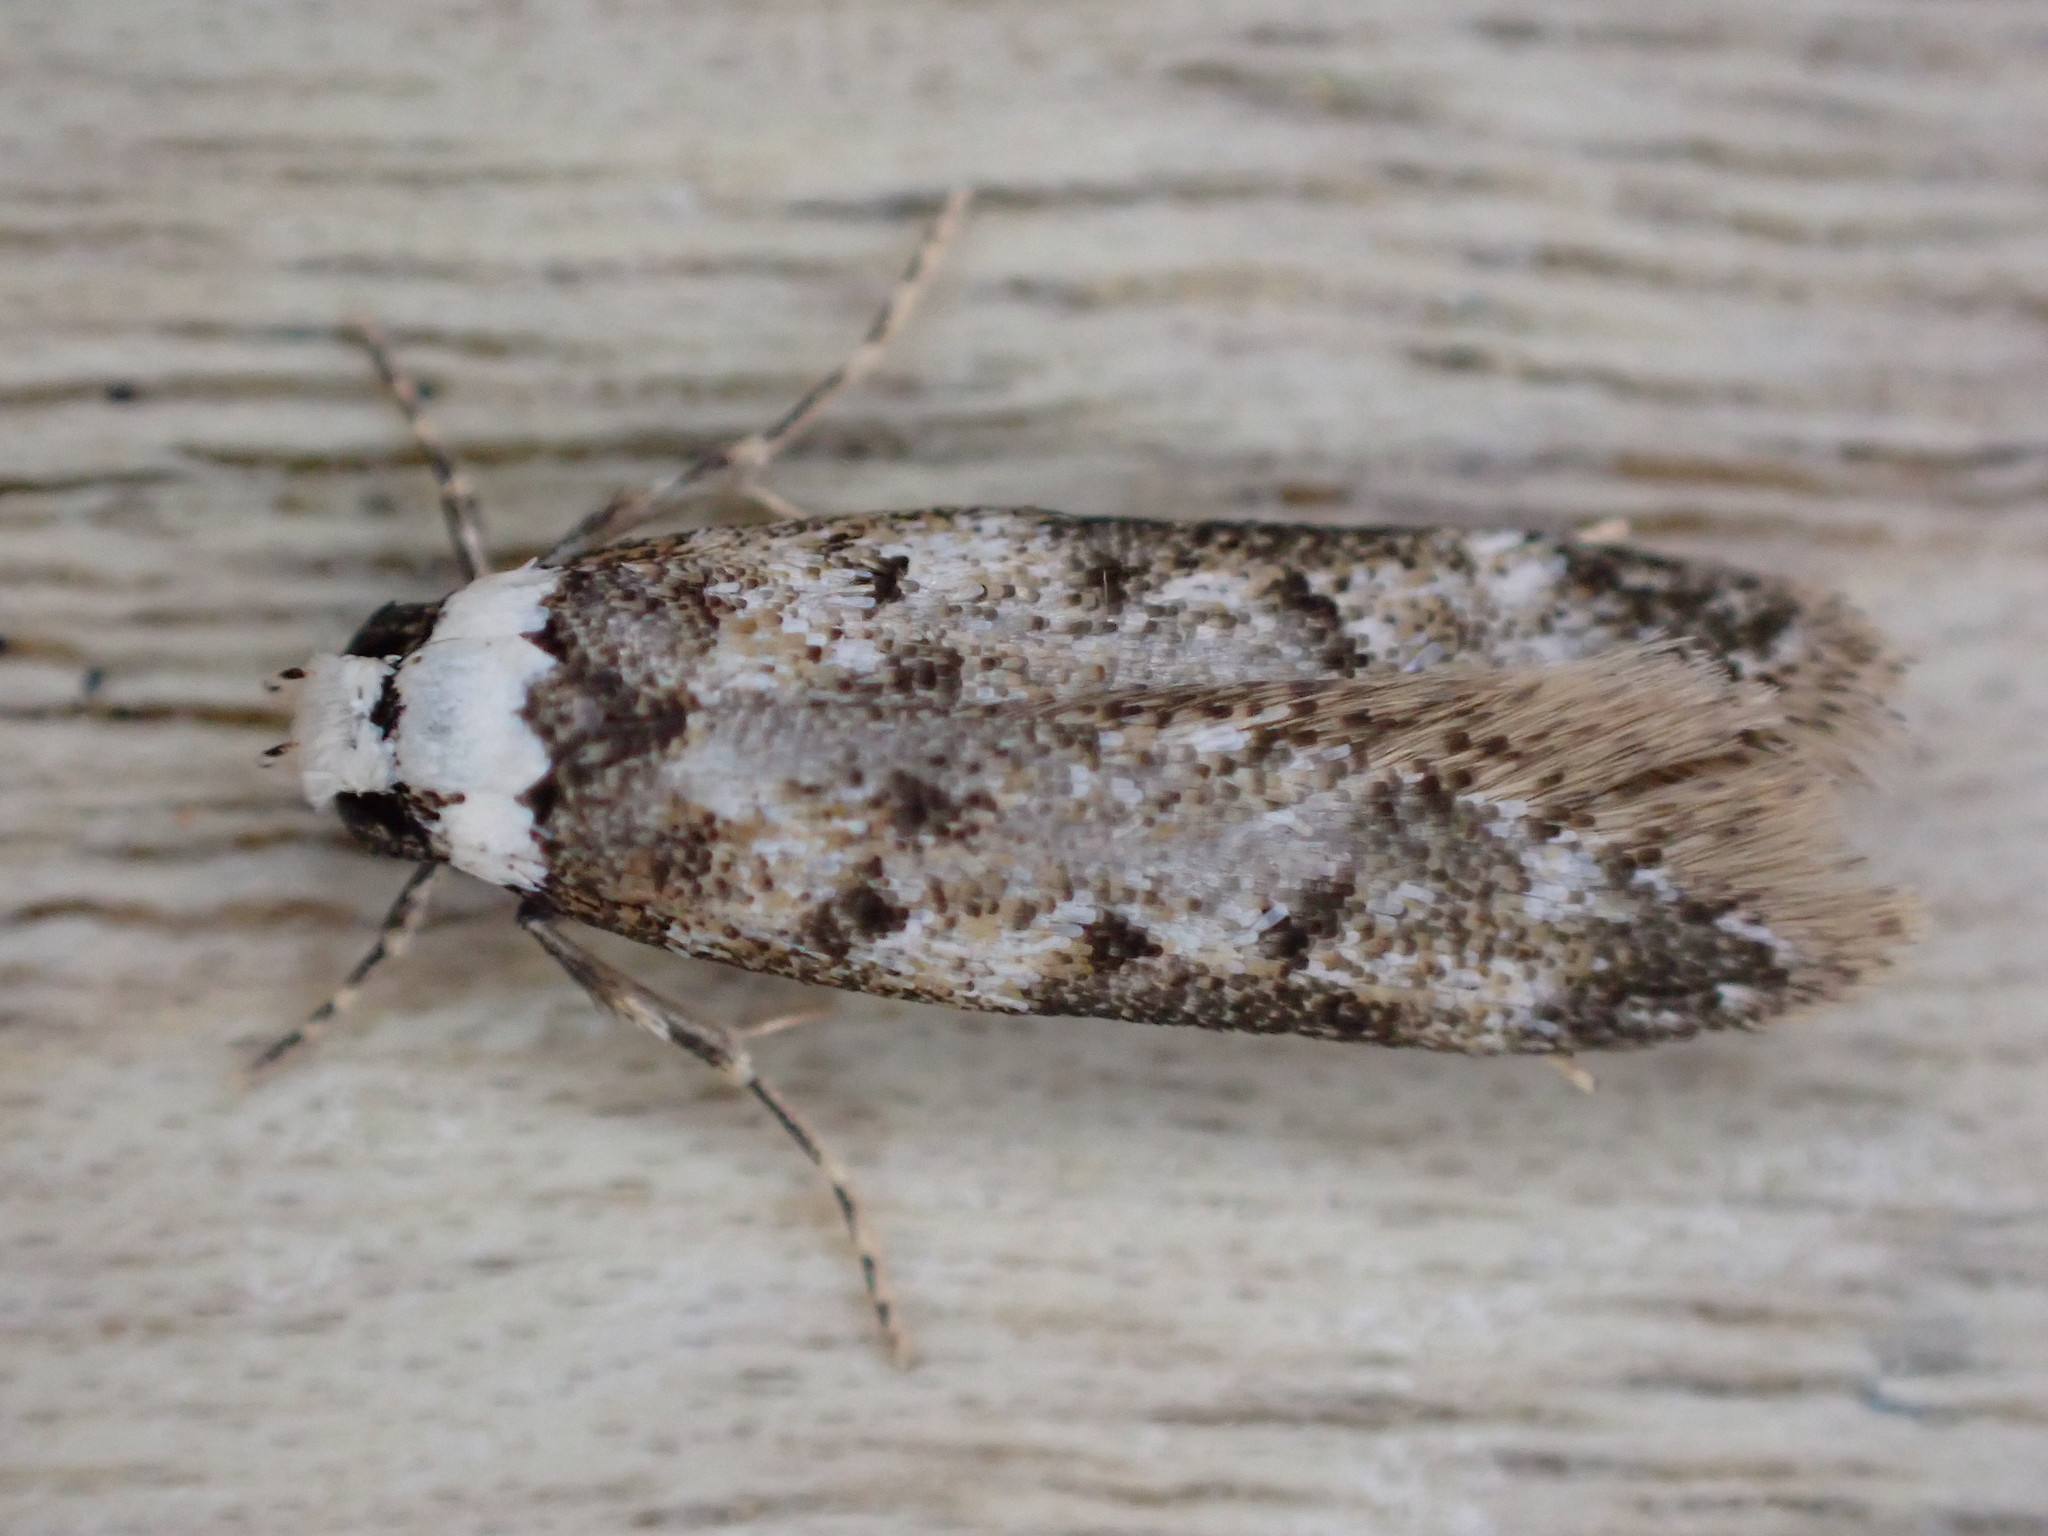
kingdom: Animalia
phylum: Arthropoda
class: Insecta
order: Lepidoptera
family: Oecophoridae
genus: Endrosis
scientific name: Endrosis sarcitrella
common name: White-shouldered house moth
